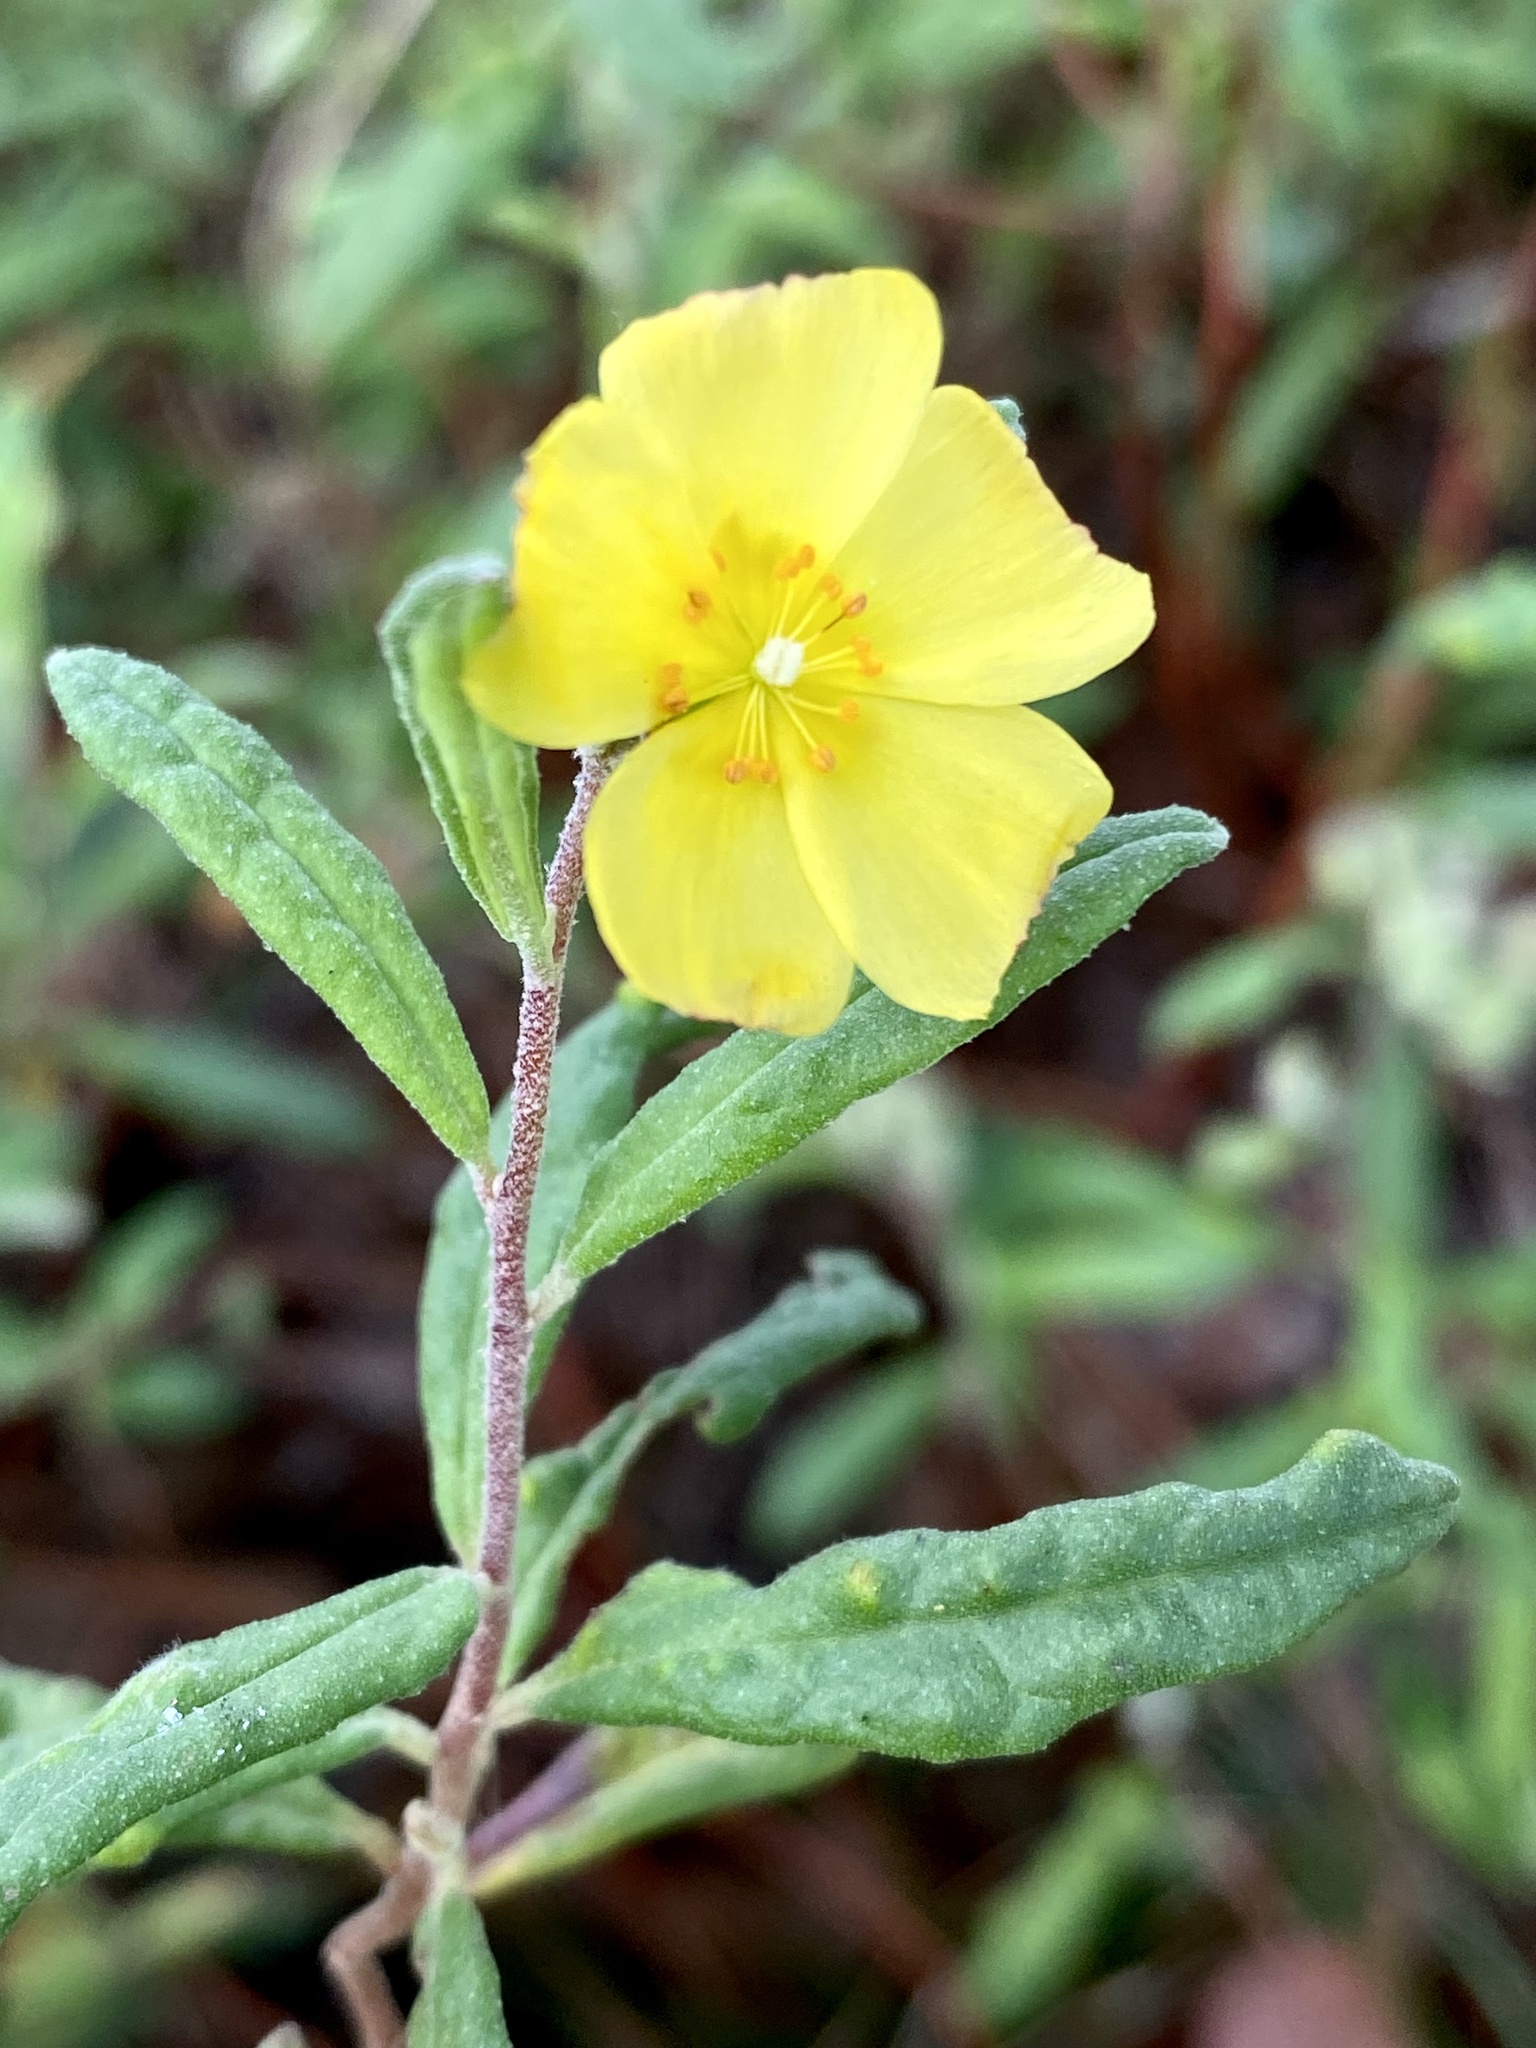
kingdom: Plantae
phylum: Tracheophyta
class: Magnoliopsida
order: Malvales
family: Cistaceae
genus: Crocanthemum
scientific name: Crocanthemum corymbosum
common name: Pinebarren sun-rose
